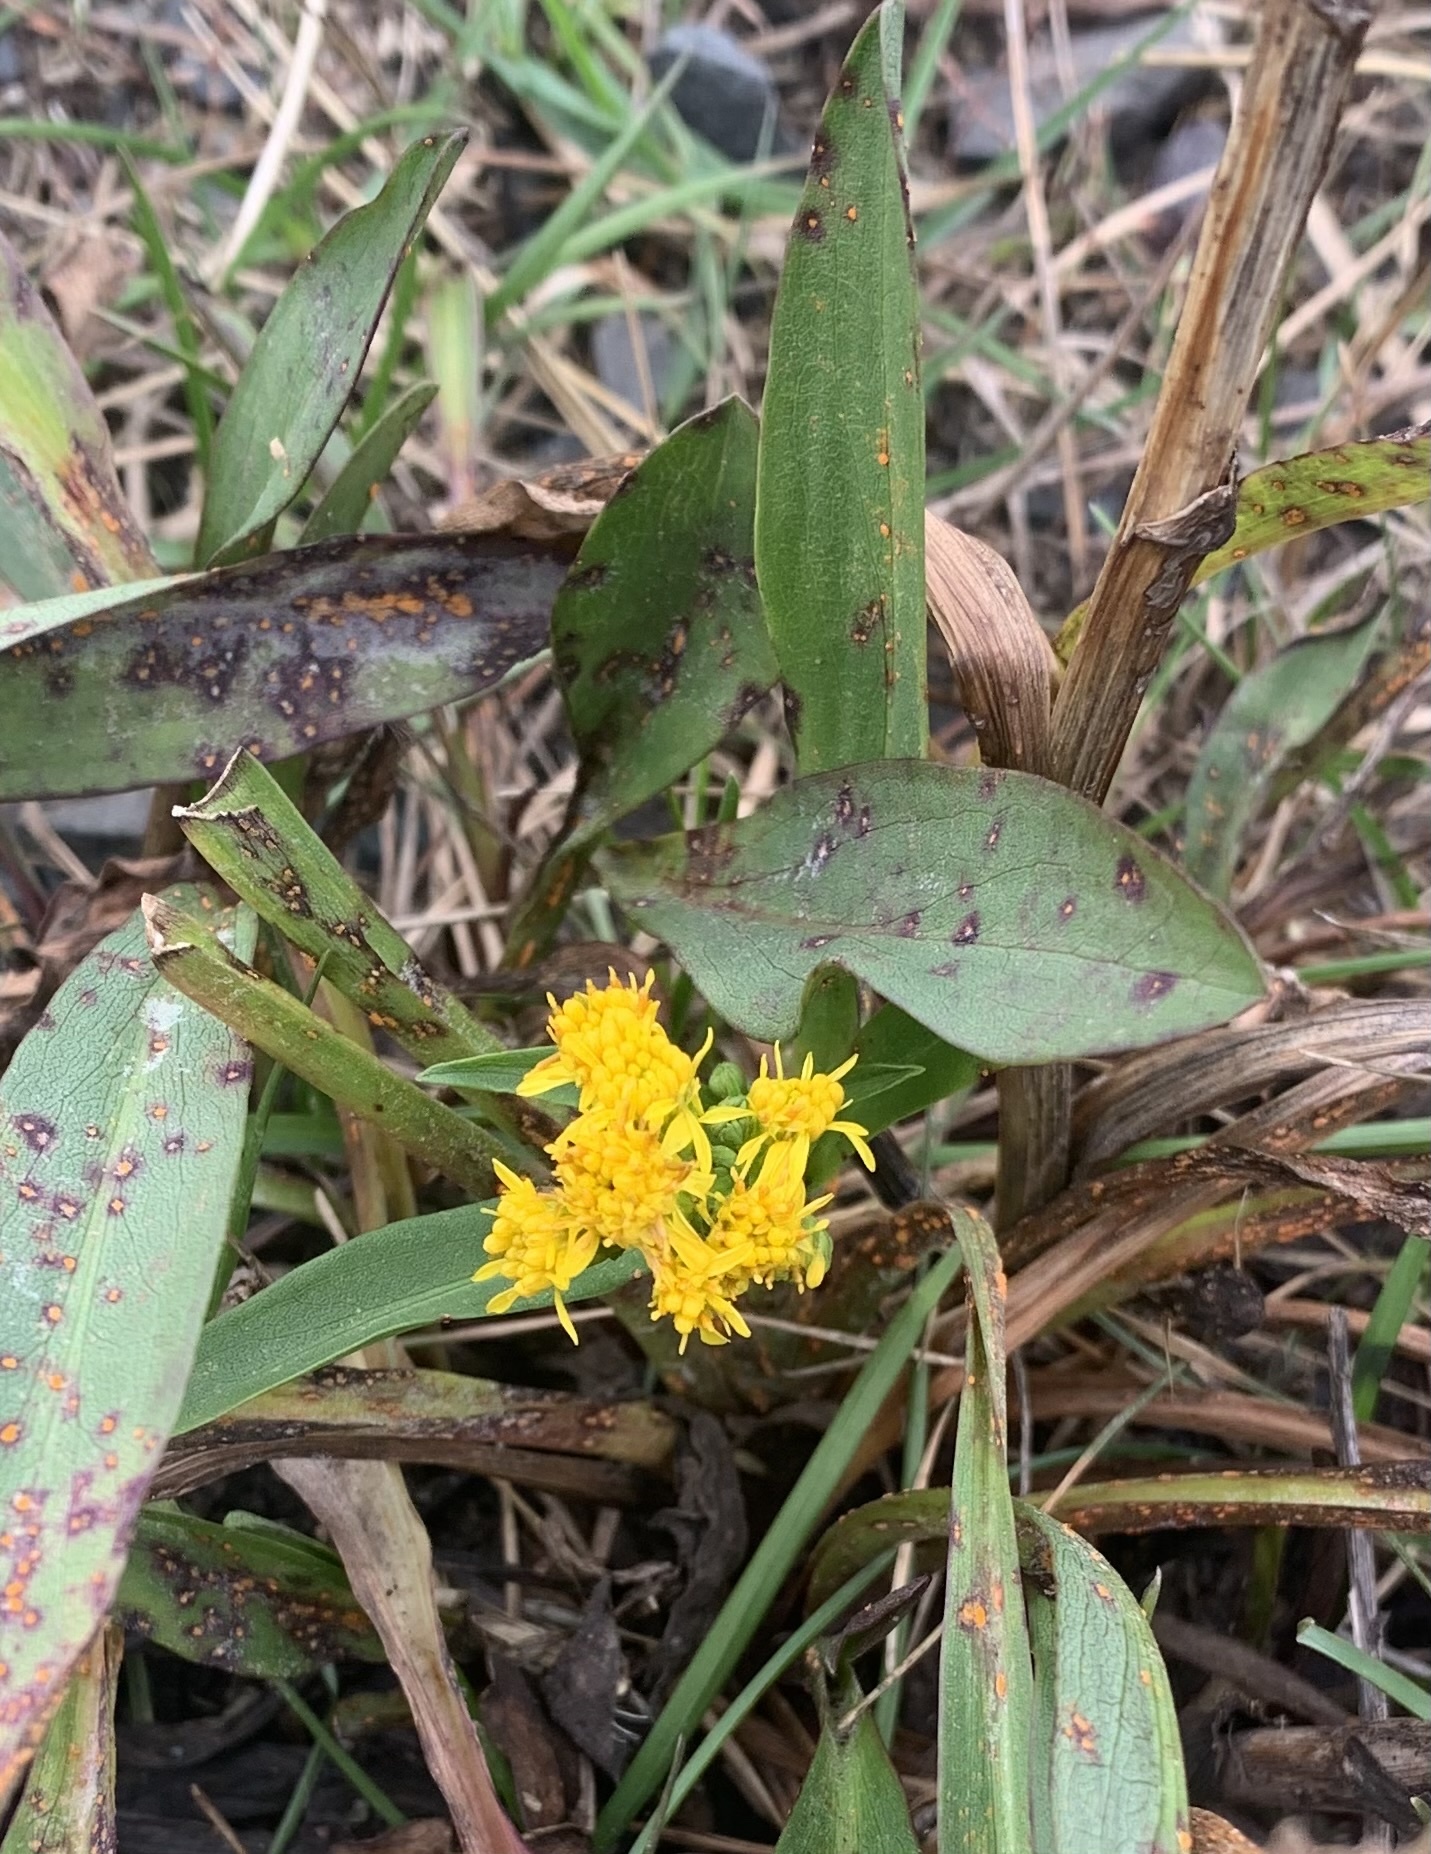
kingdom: Plantae
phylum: Tracheophyta
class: Magnoliopsida
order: Asterales
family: Asteraceae
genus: Solidago
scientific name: Solidago sempervirens
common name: Salt-marsh goldenrod
